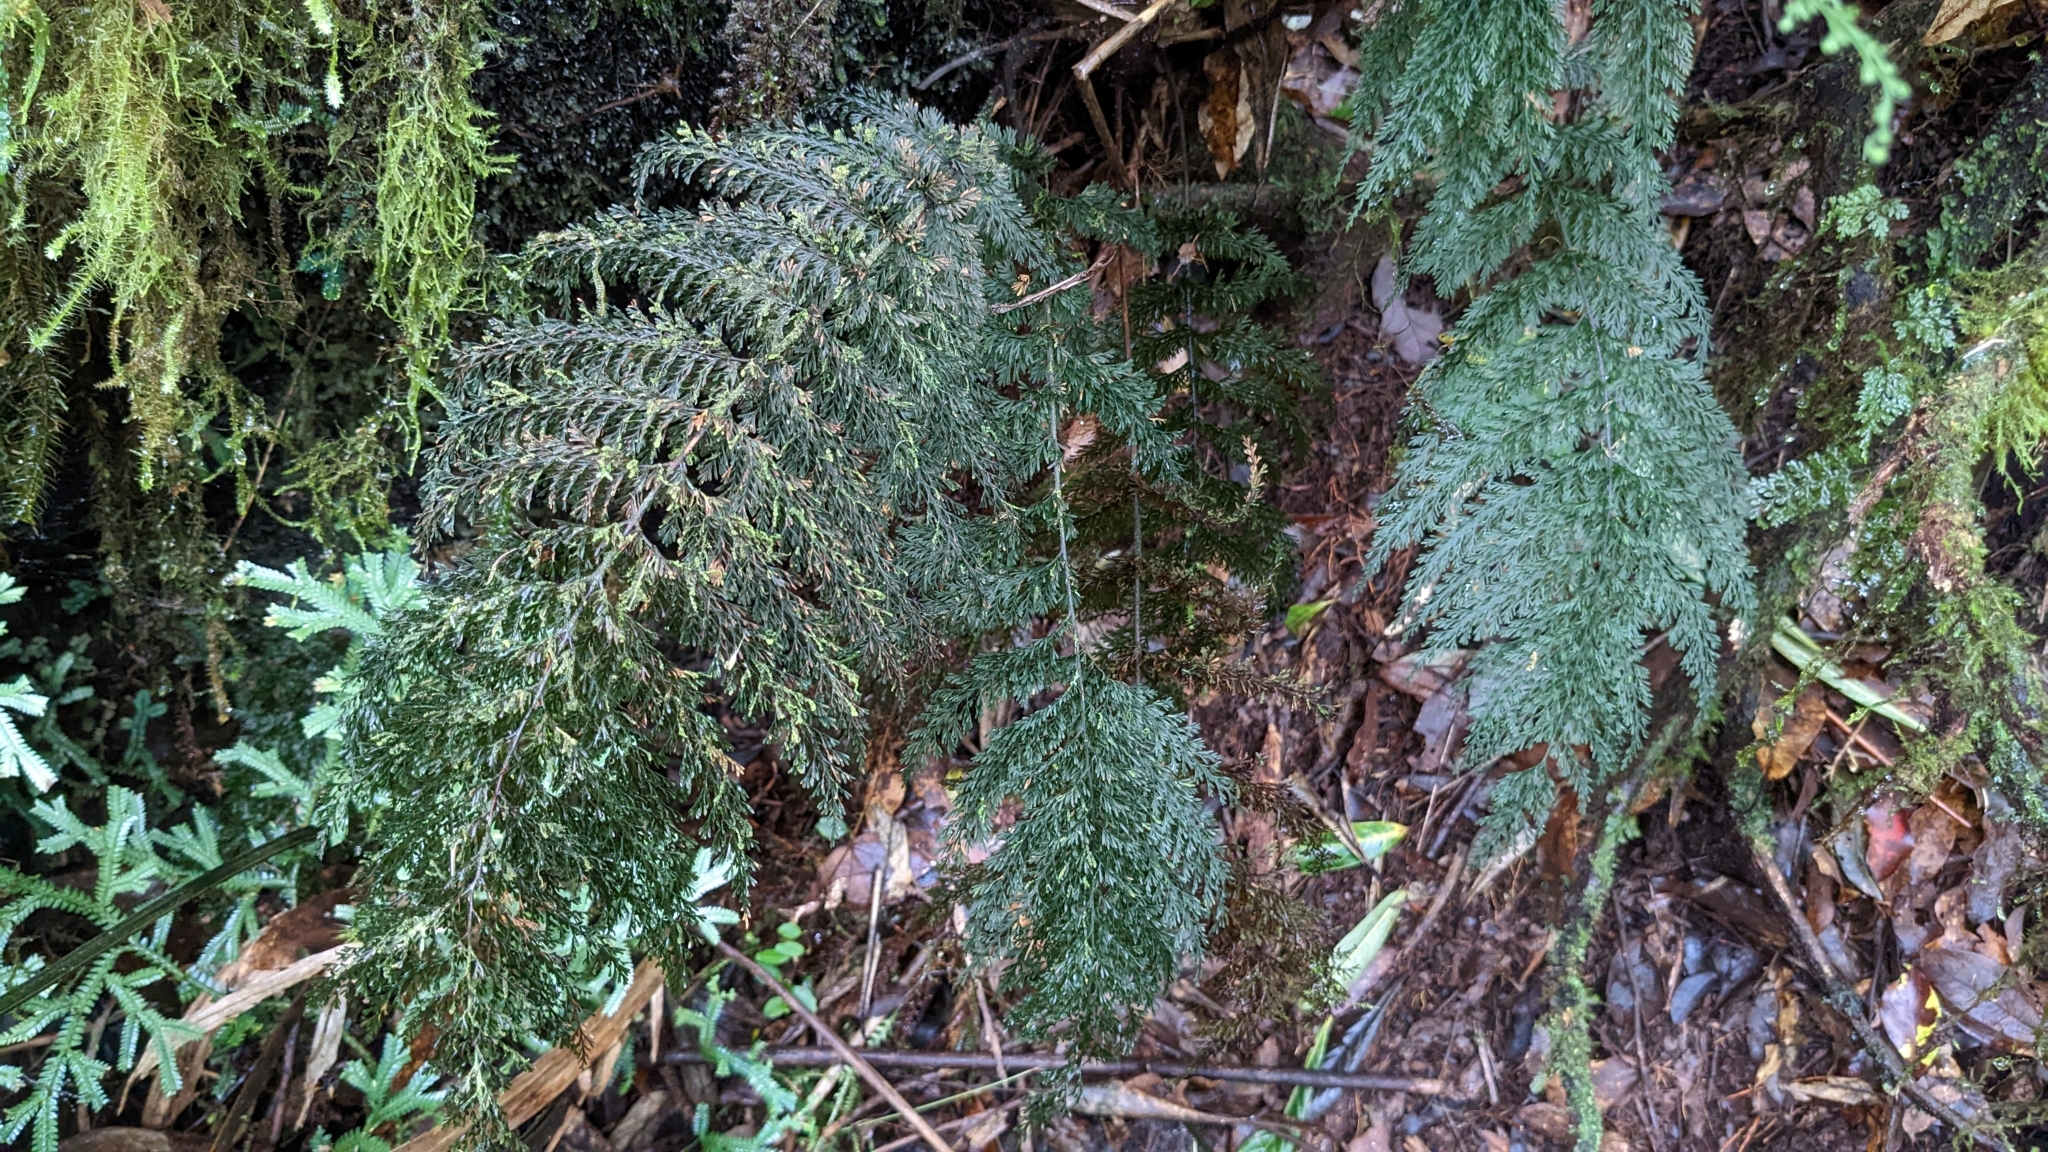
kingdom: Plantae
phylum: Tracheophyta
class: Polypodiopsida
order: Hymenophyllales
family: Hymenophyllaceae
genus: Callistopteris
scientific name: Callistopteris apiifolia
